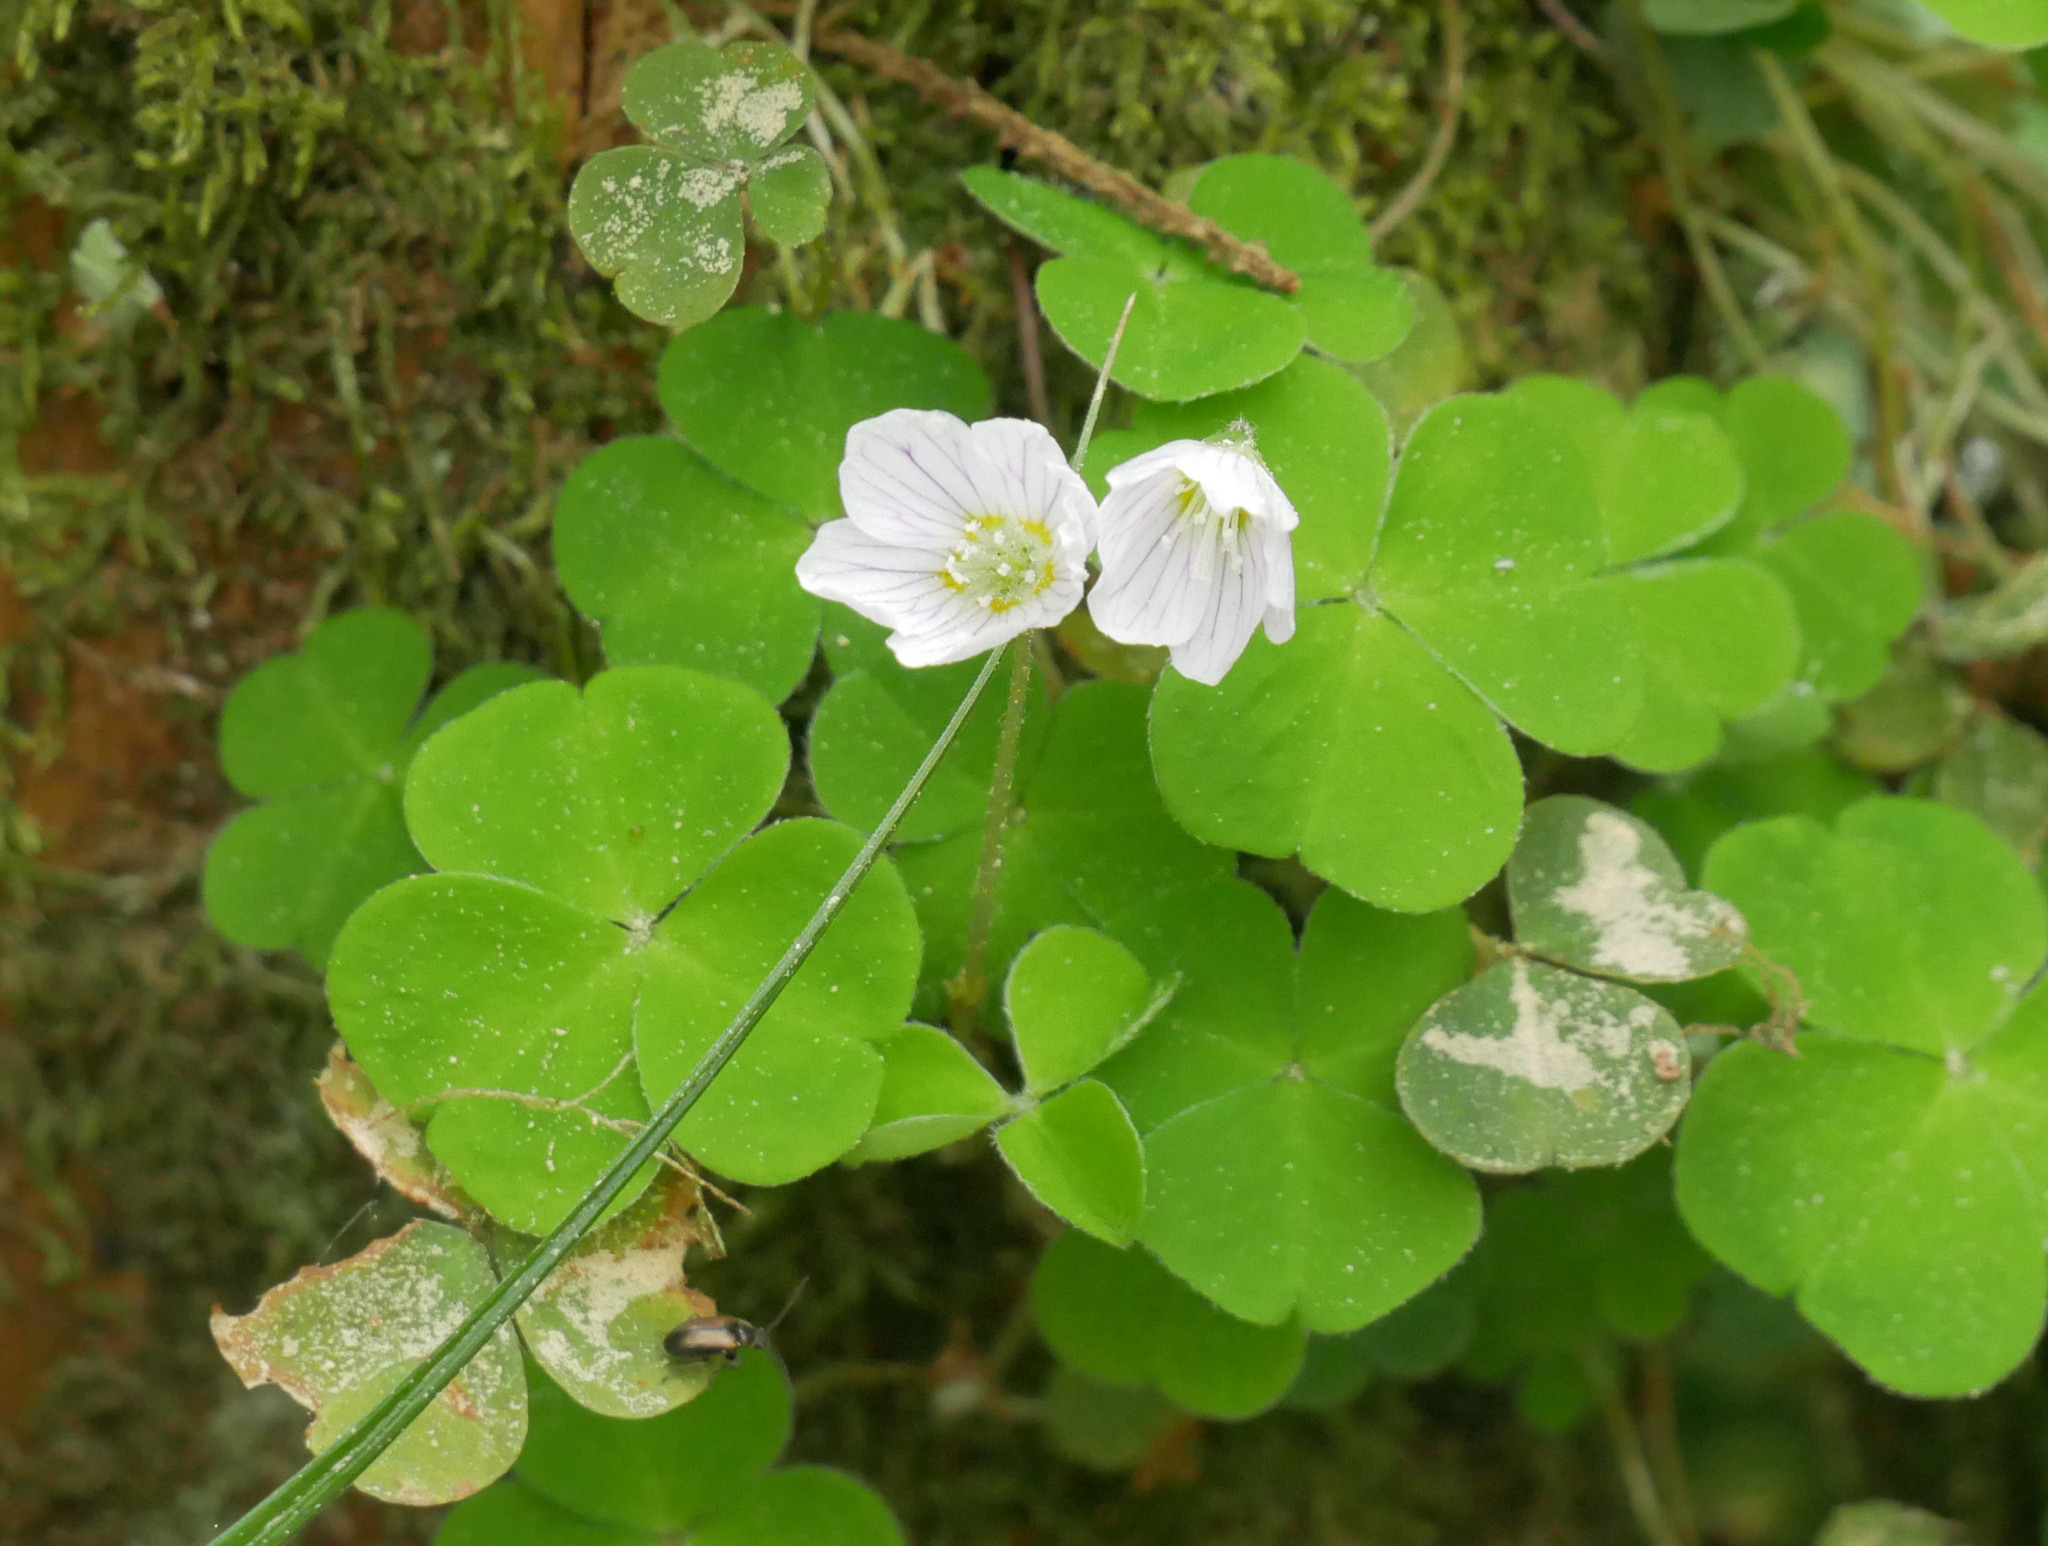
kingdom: Plantae
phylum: Tracheophyta
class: Magnoliopsida
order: Oxalidales
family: Oxalidaceae
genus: Oxalis
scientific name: Oxalis acetosella
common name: Wood-sorrel
